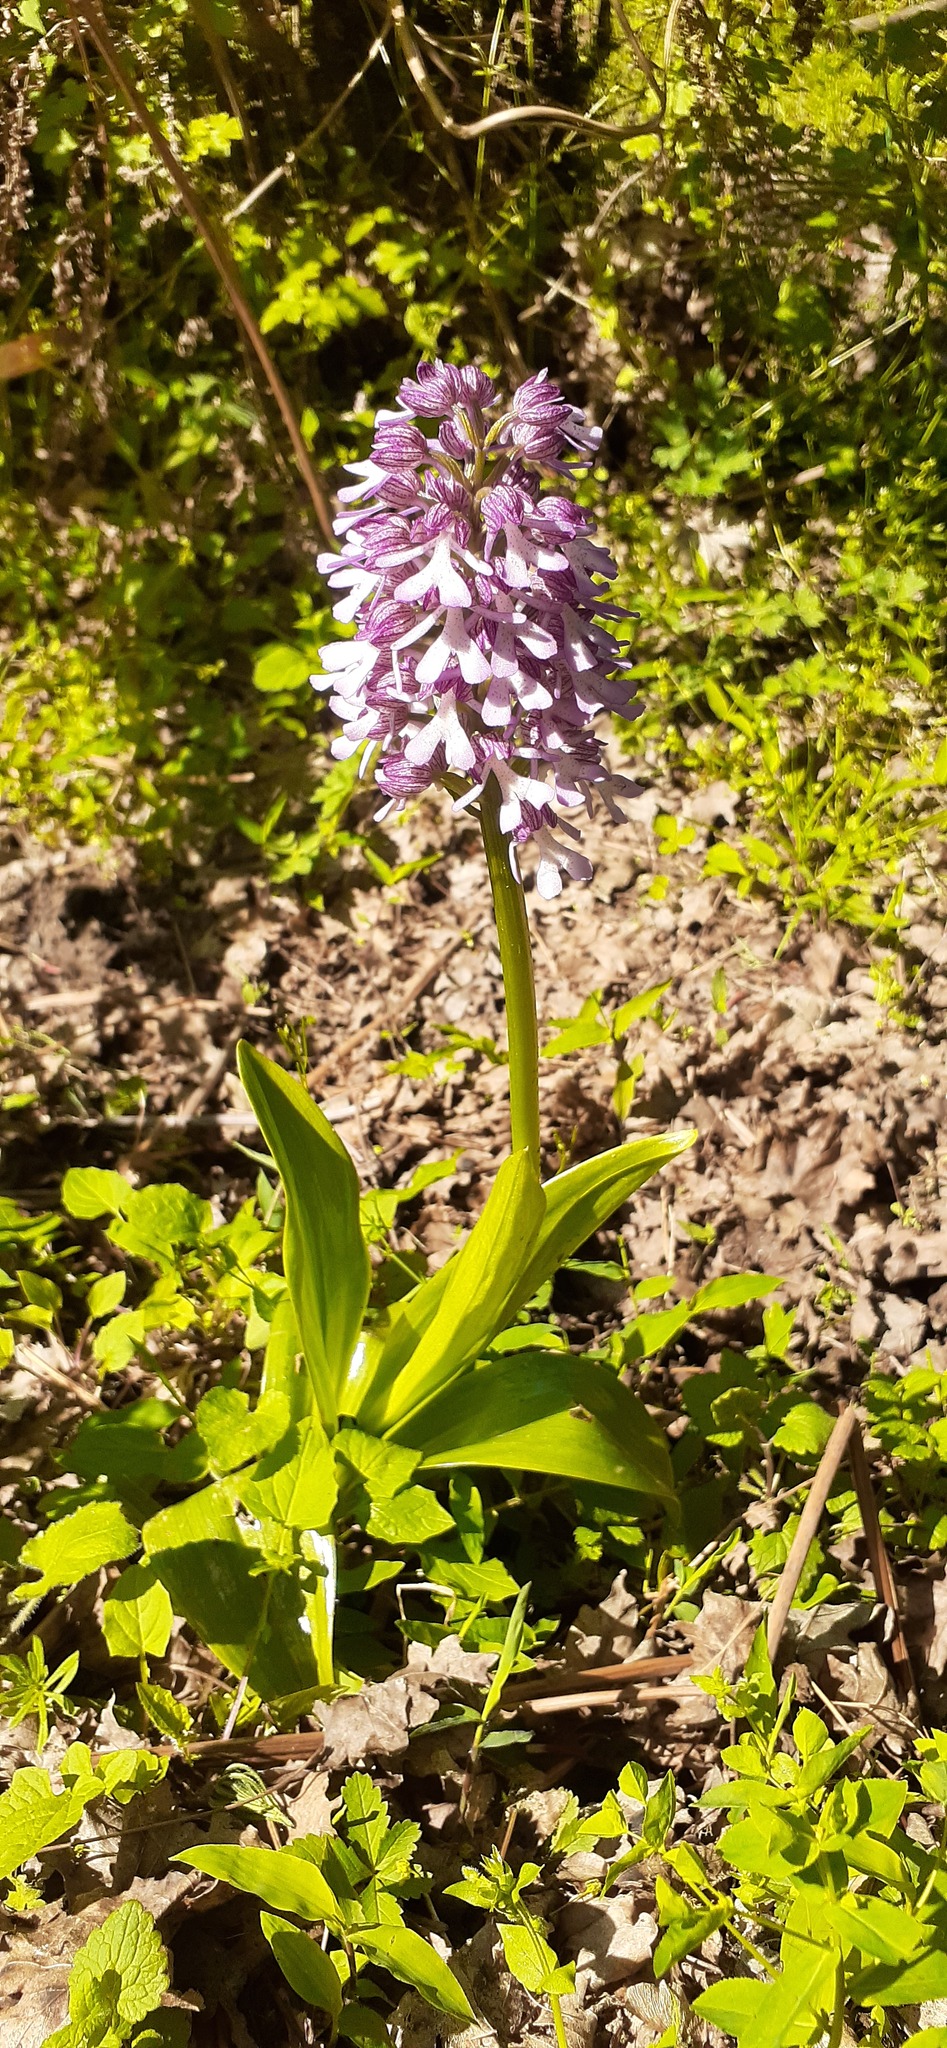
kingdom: Plantae
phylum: Tracheophyta
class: Liliopsida
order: Asparagales
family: Orchidaceae
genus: Orchis
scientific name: Orchis purpurea
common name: Lady orchid
